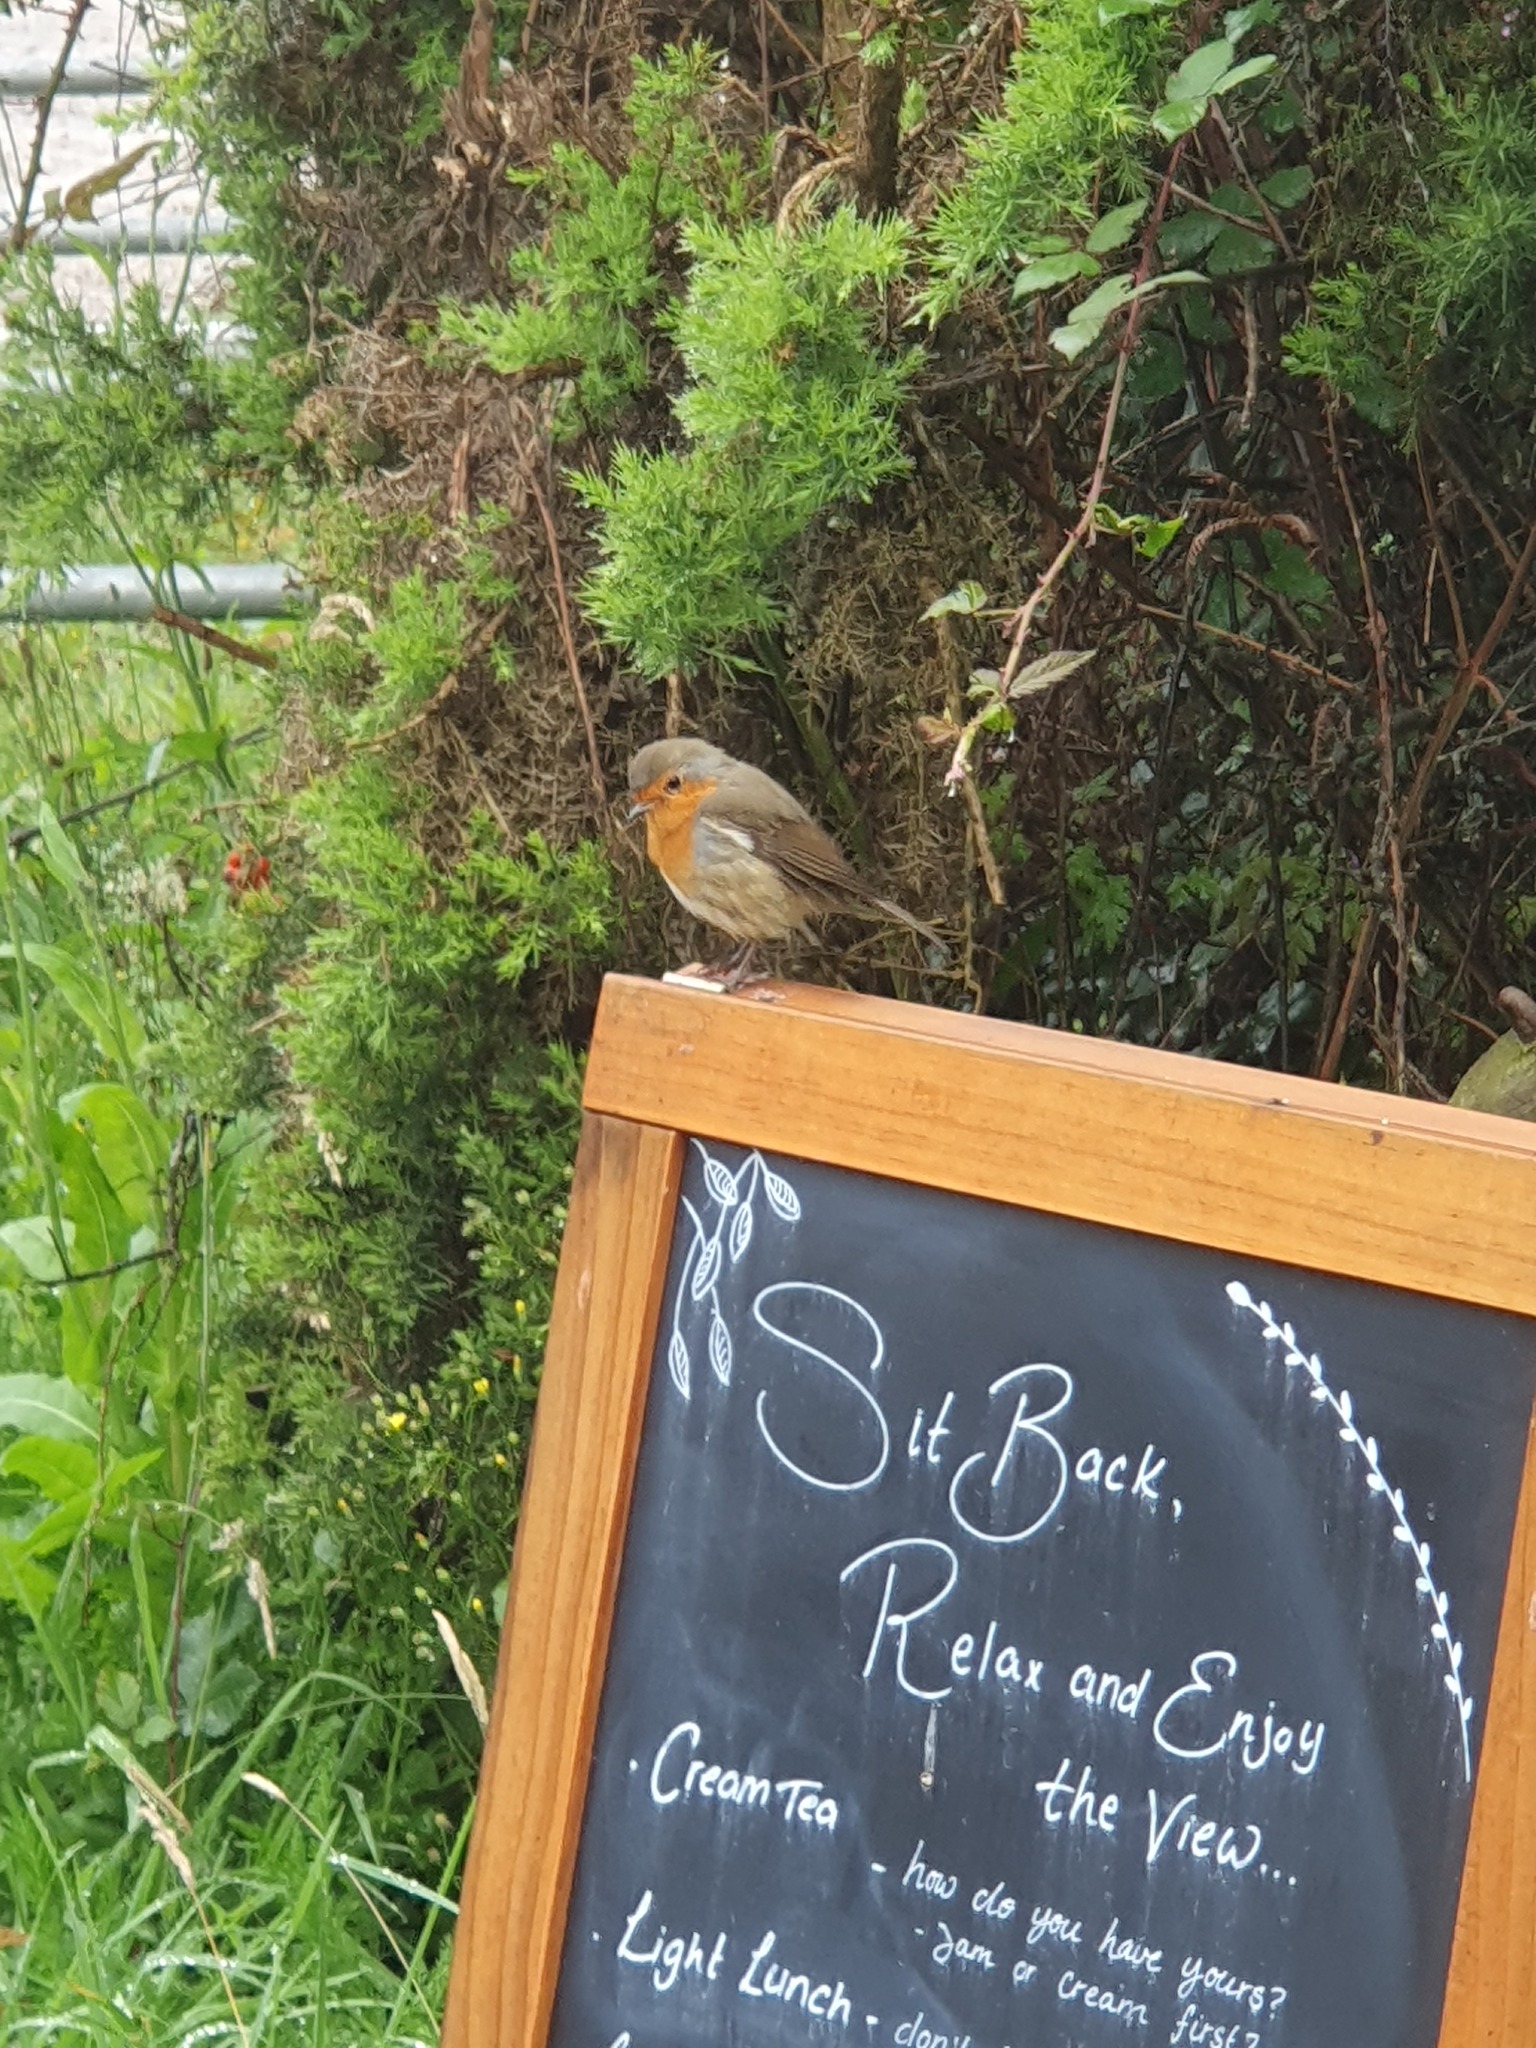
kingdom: Animalia
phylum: Chordata
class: Aves
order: Passeriformes
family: Muscicapidae
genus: Erithacus
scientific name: Erithacus rubecula
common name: European robin
